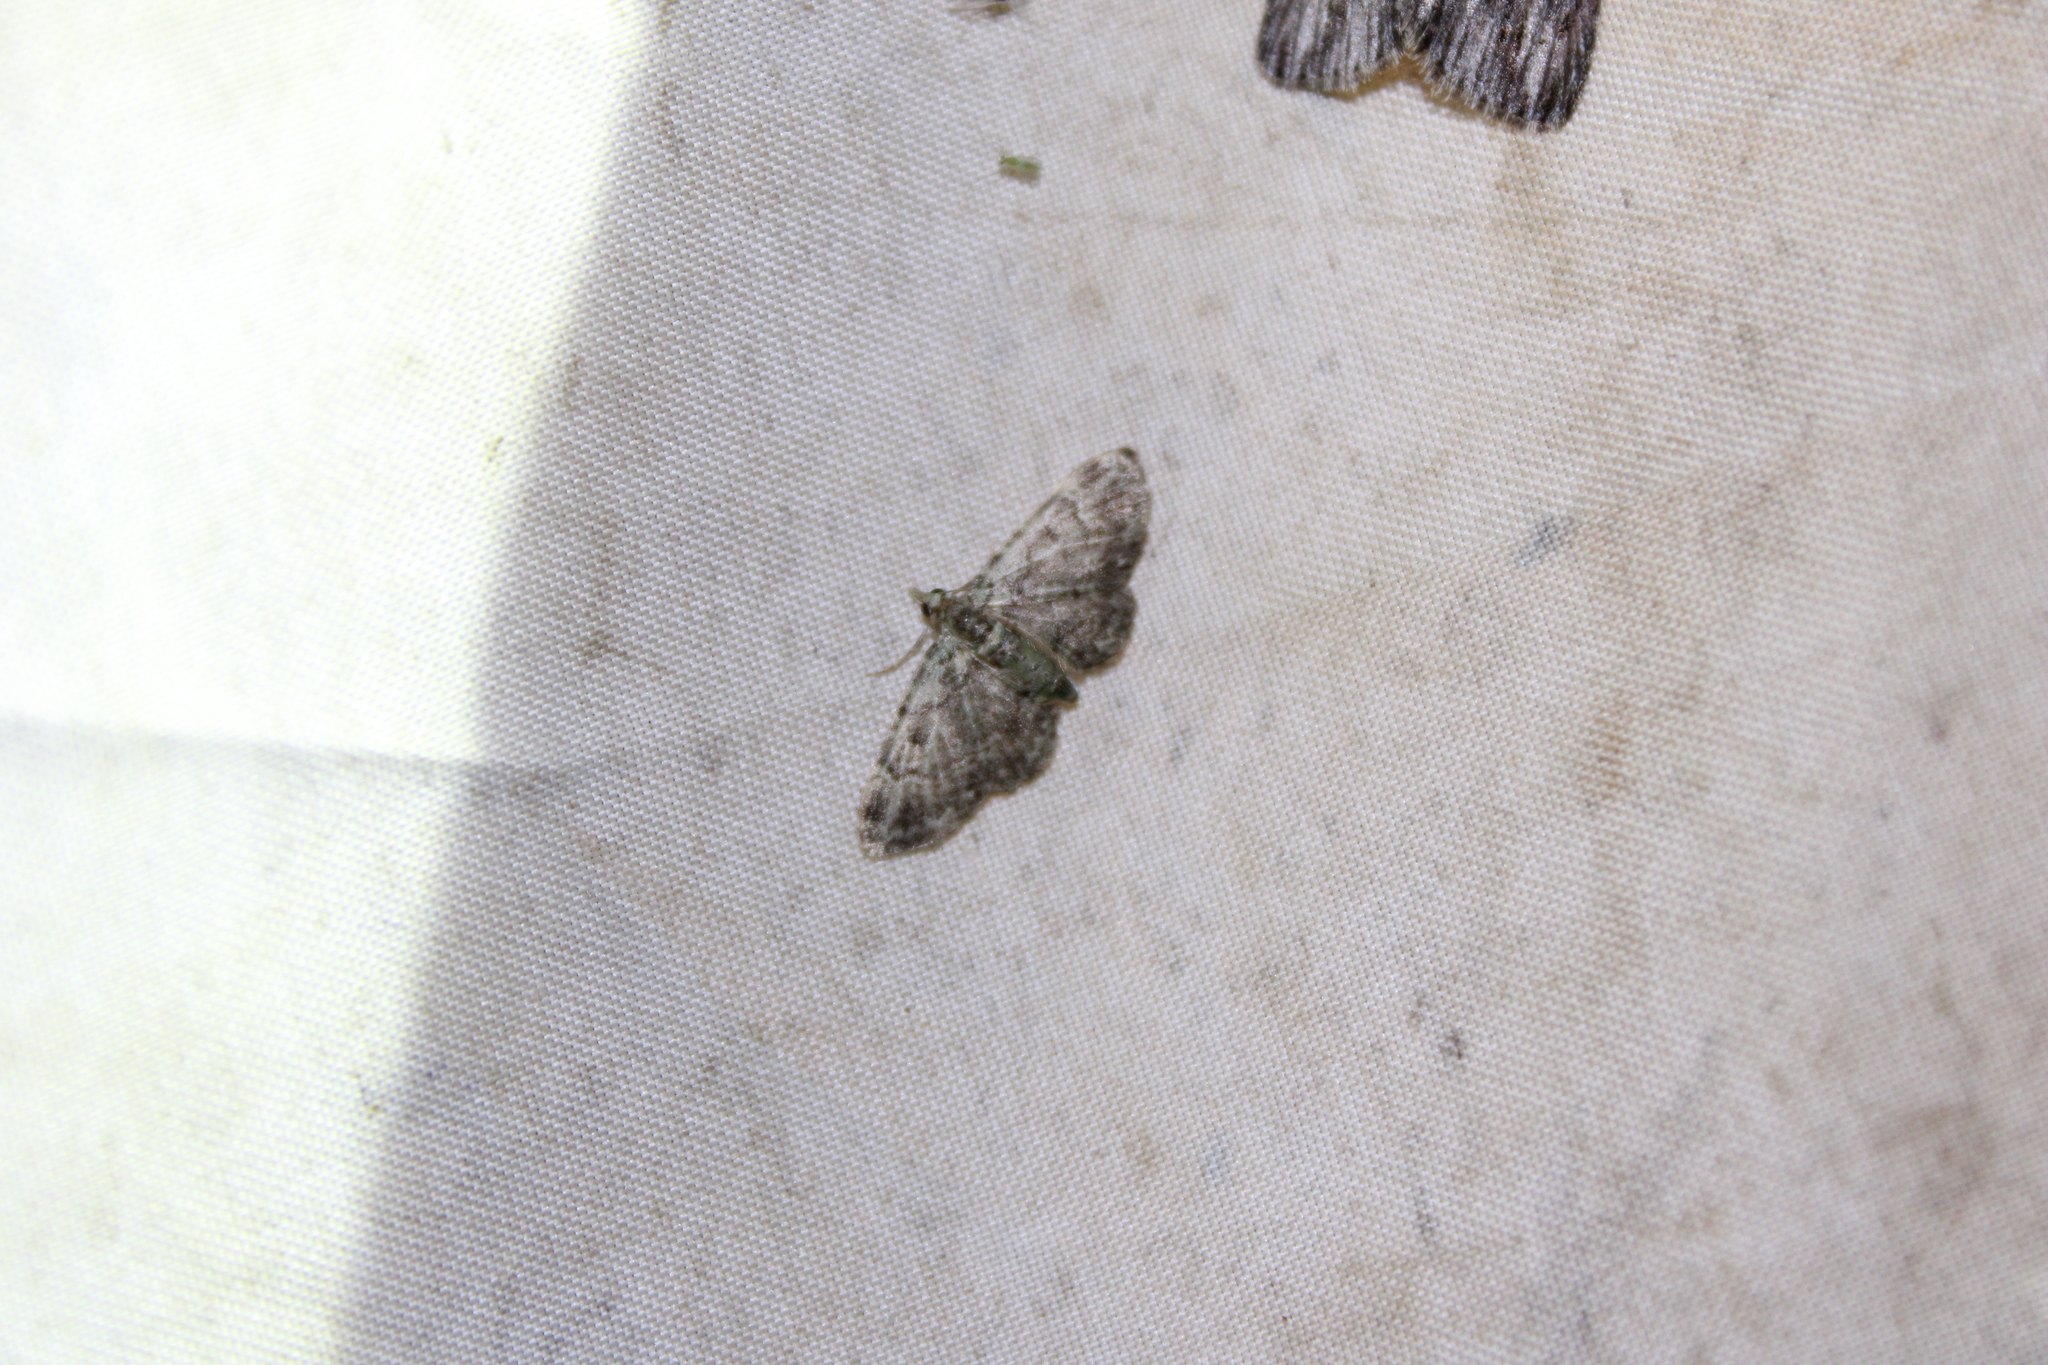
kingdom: Animalia
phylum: Arthropoda
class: Insecta
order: Lepidoptera
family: Geometridae
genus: Pasiphila
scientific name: Pasiphila rectangulata
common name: Green pug
